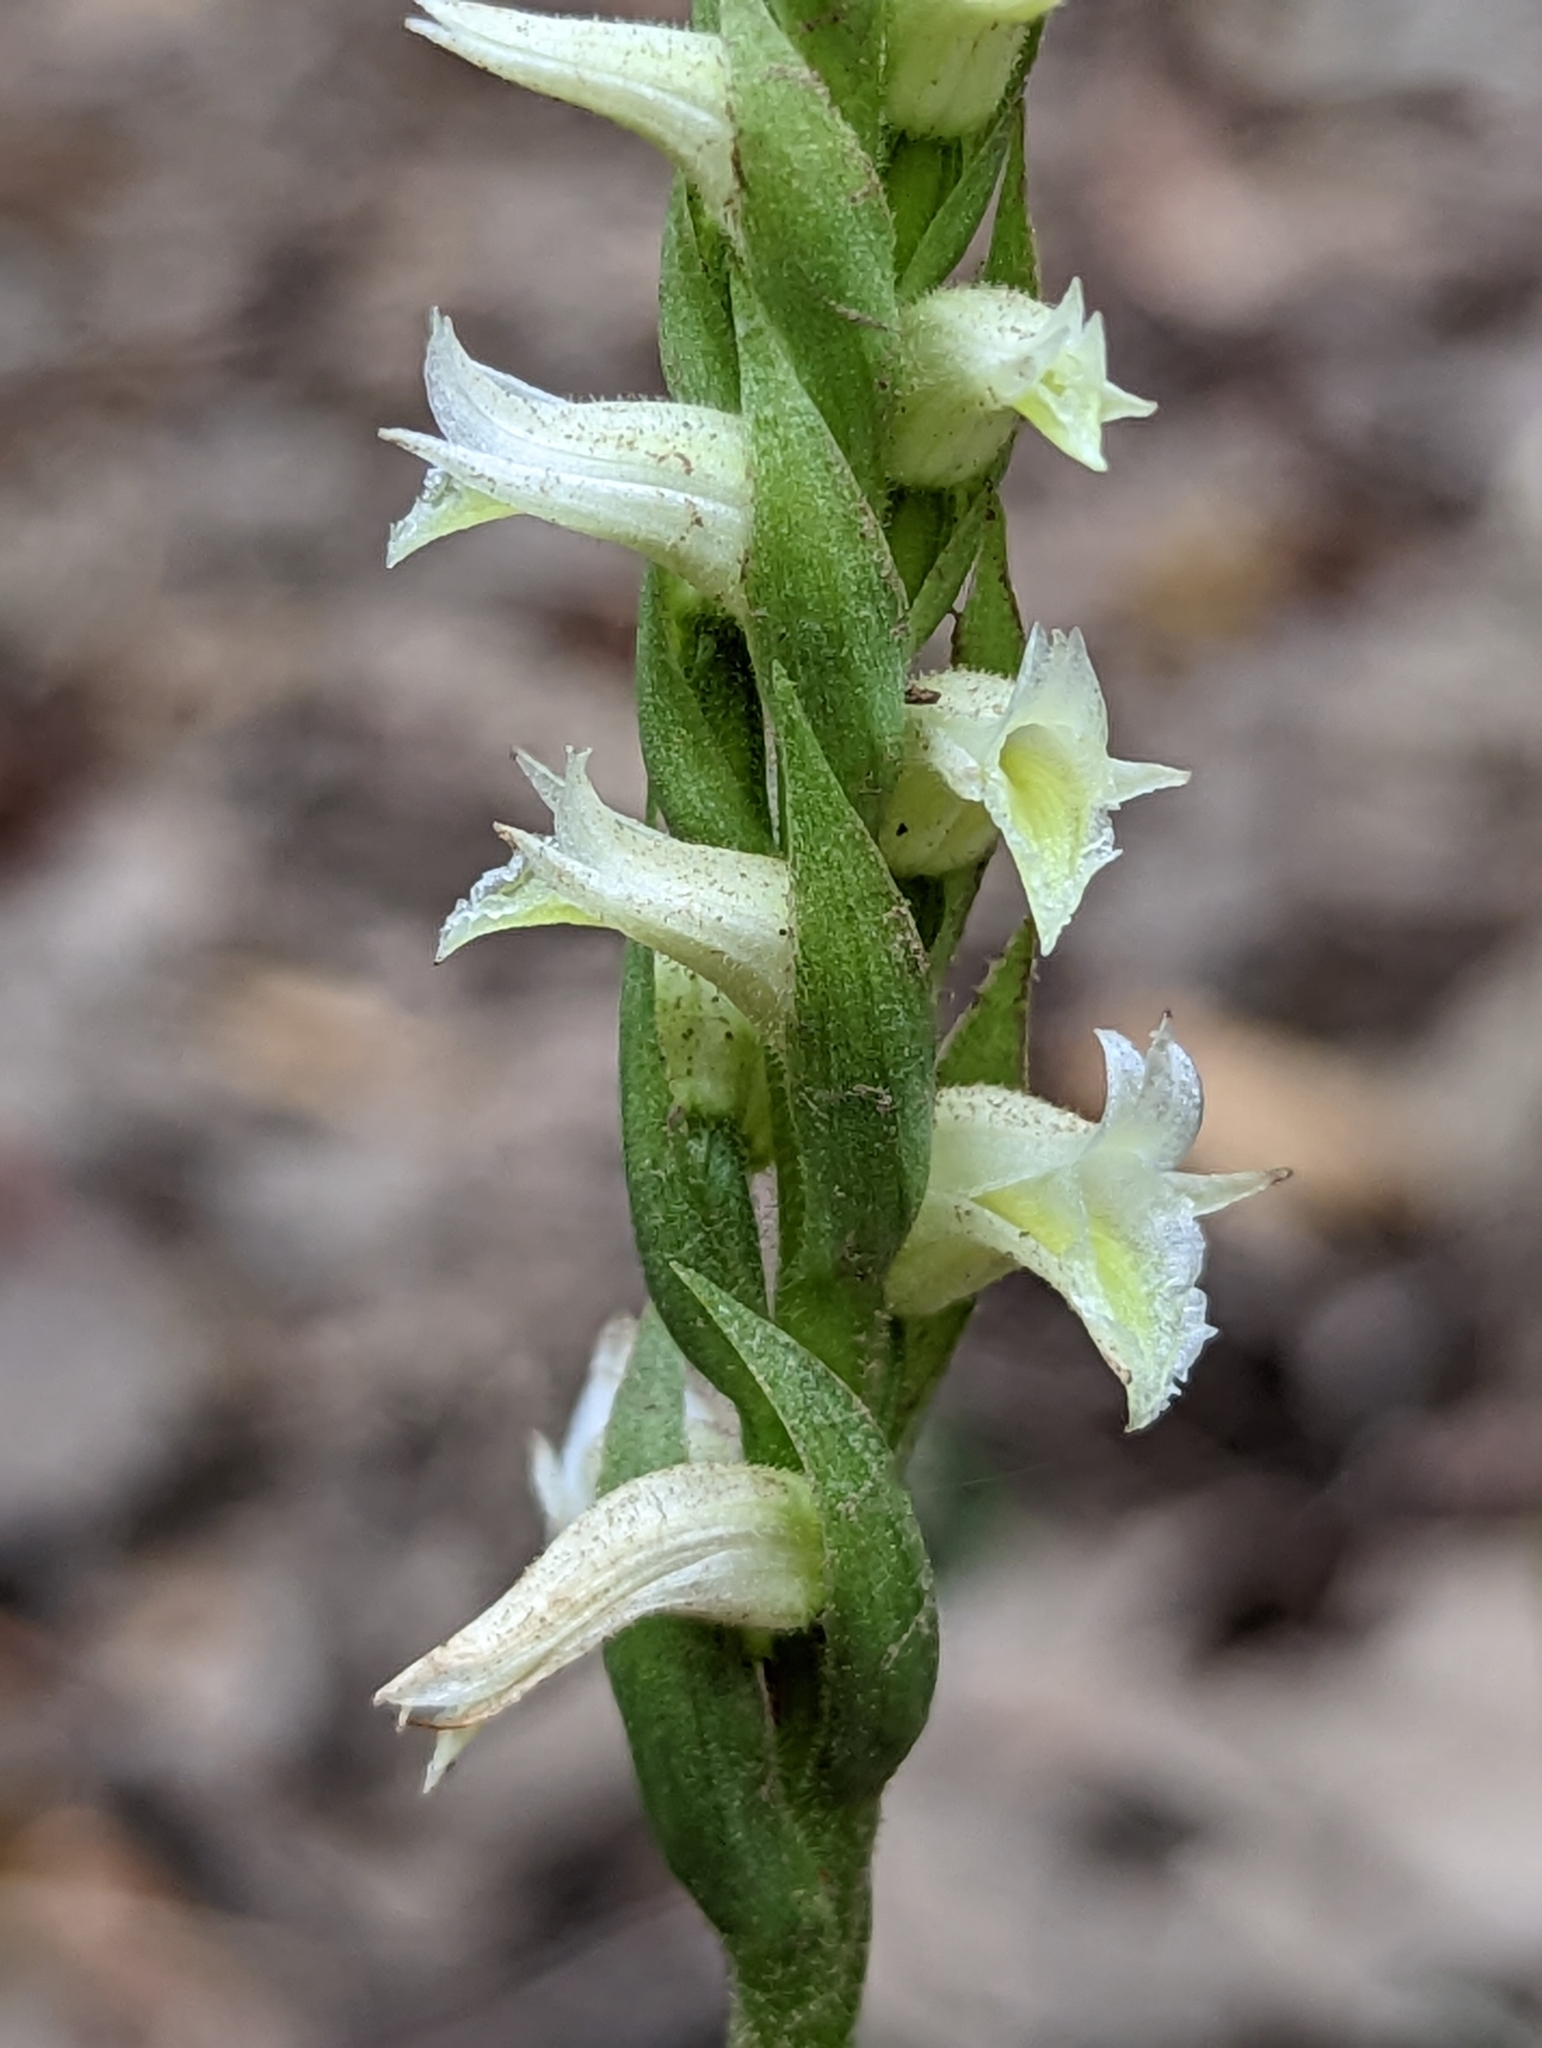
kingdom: Plantae
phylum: Tracheophyta
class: Liliopsida
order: Asparagales
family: Orchidaceae
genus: Spiranthes
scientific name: Spiranthes odorata
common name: Marsh ladies'-tresses
